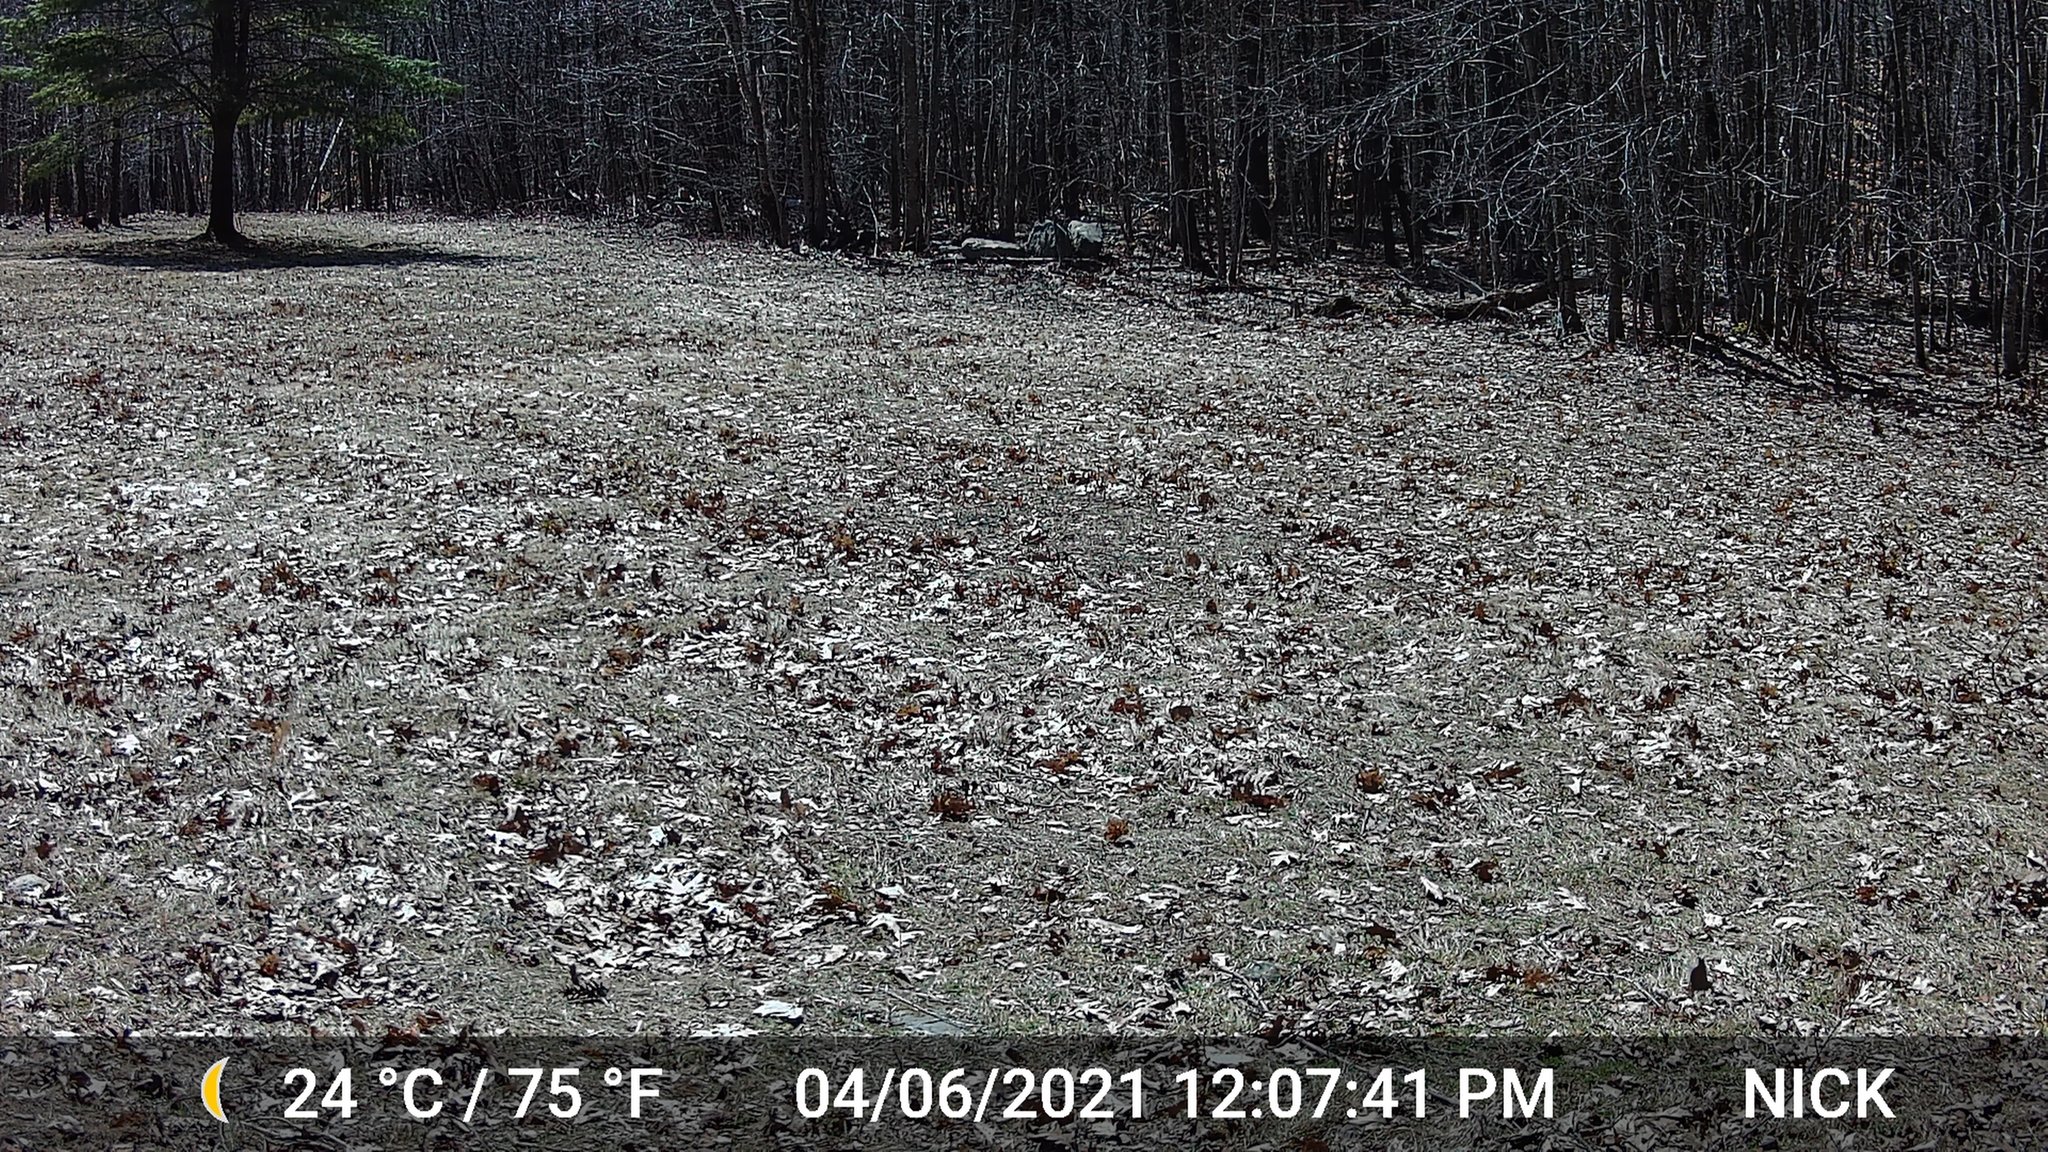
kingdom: Animalia
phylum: Chordata
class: Aves
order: Galliformes
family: Phasianidae
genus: Meleagris
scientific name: Meleagris gallopavo
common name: Wild turkey
